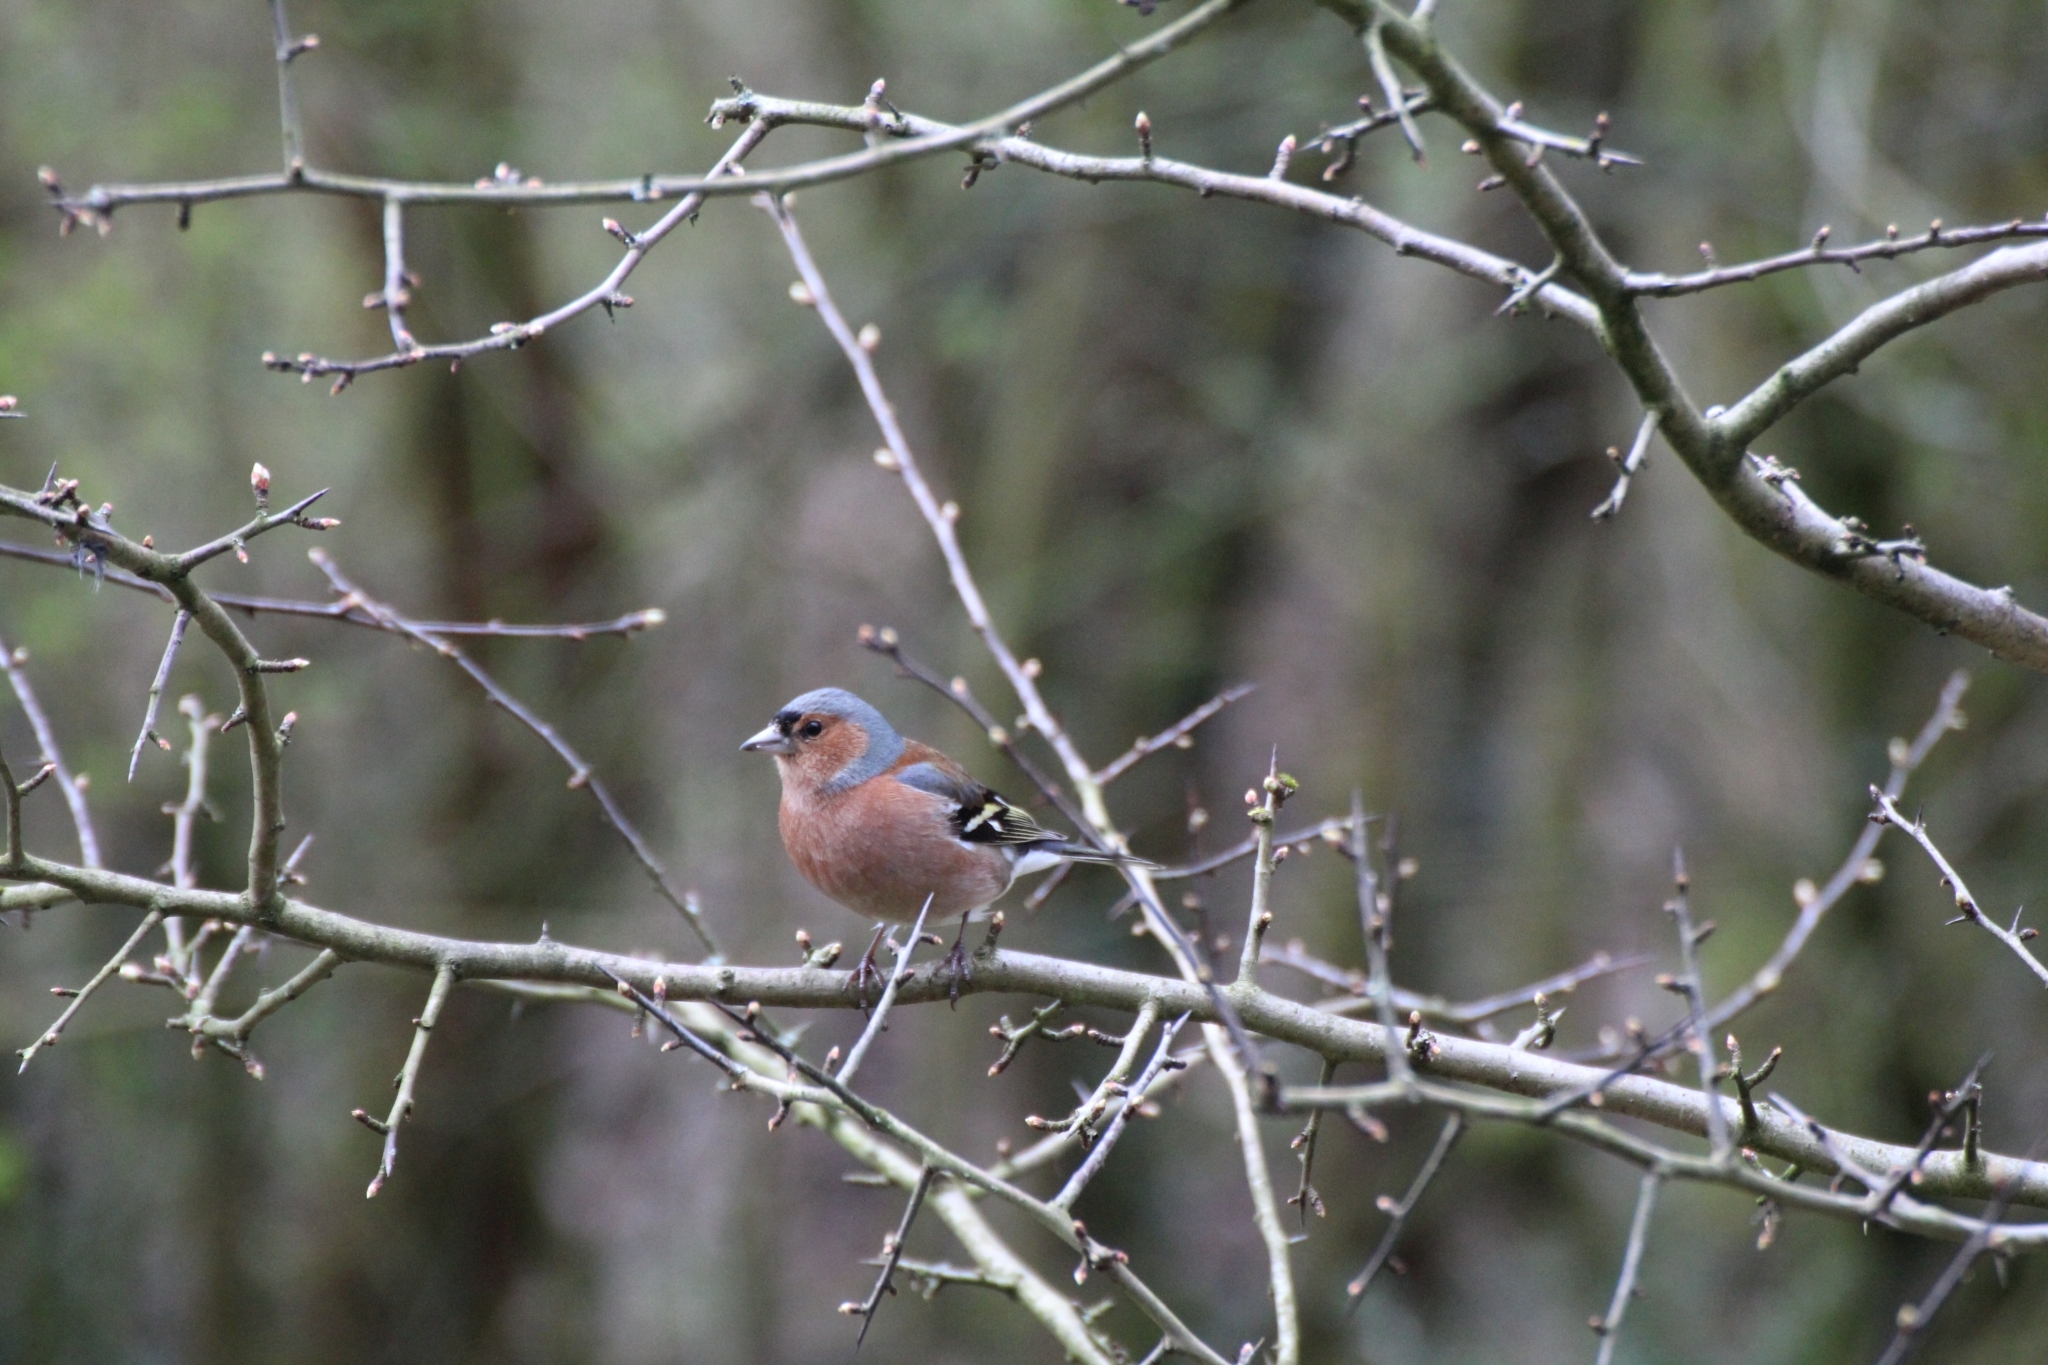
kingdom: Animalia
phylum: Chordata
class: Aves
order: Passeriformes
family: Fringillidae
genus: Fringilla
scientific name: Fringilla coelebs
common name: Common chaffinch
